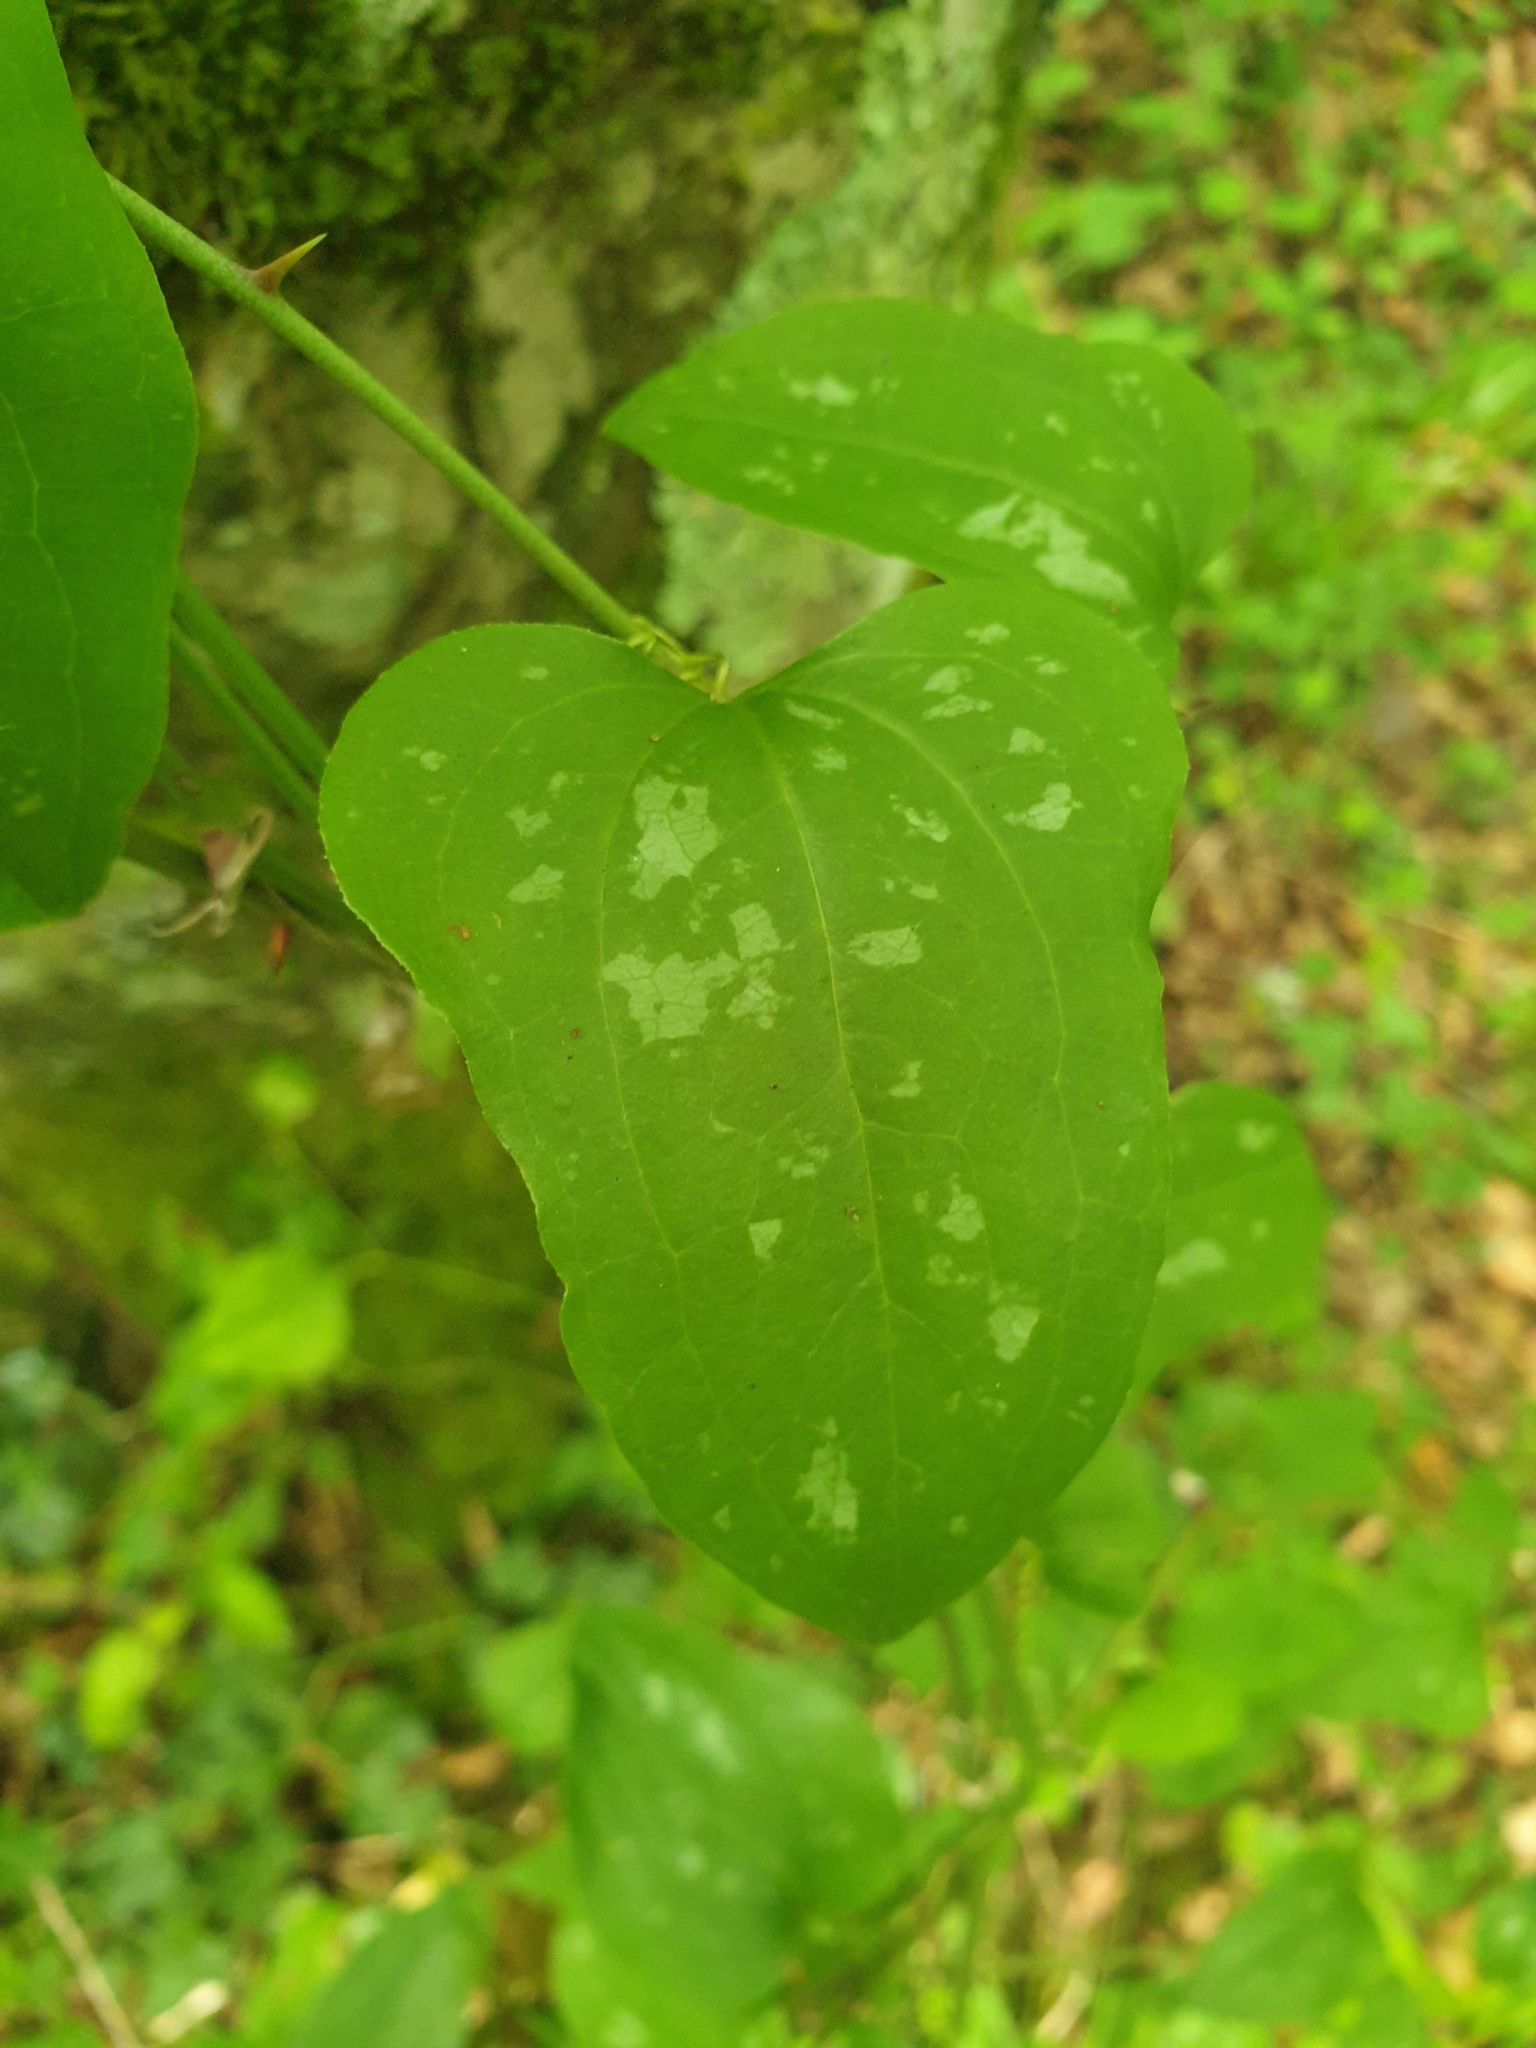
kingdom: Plantae
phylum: Tracheophyta
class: Liliopsida
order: Liliales
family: Smilacaceae
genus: Smilax
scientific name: Smilax excelsa
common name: Larger smilax
